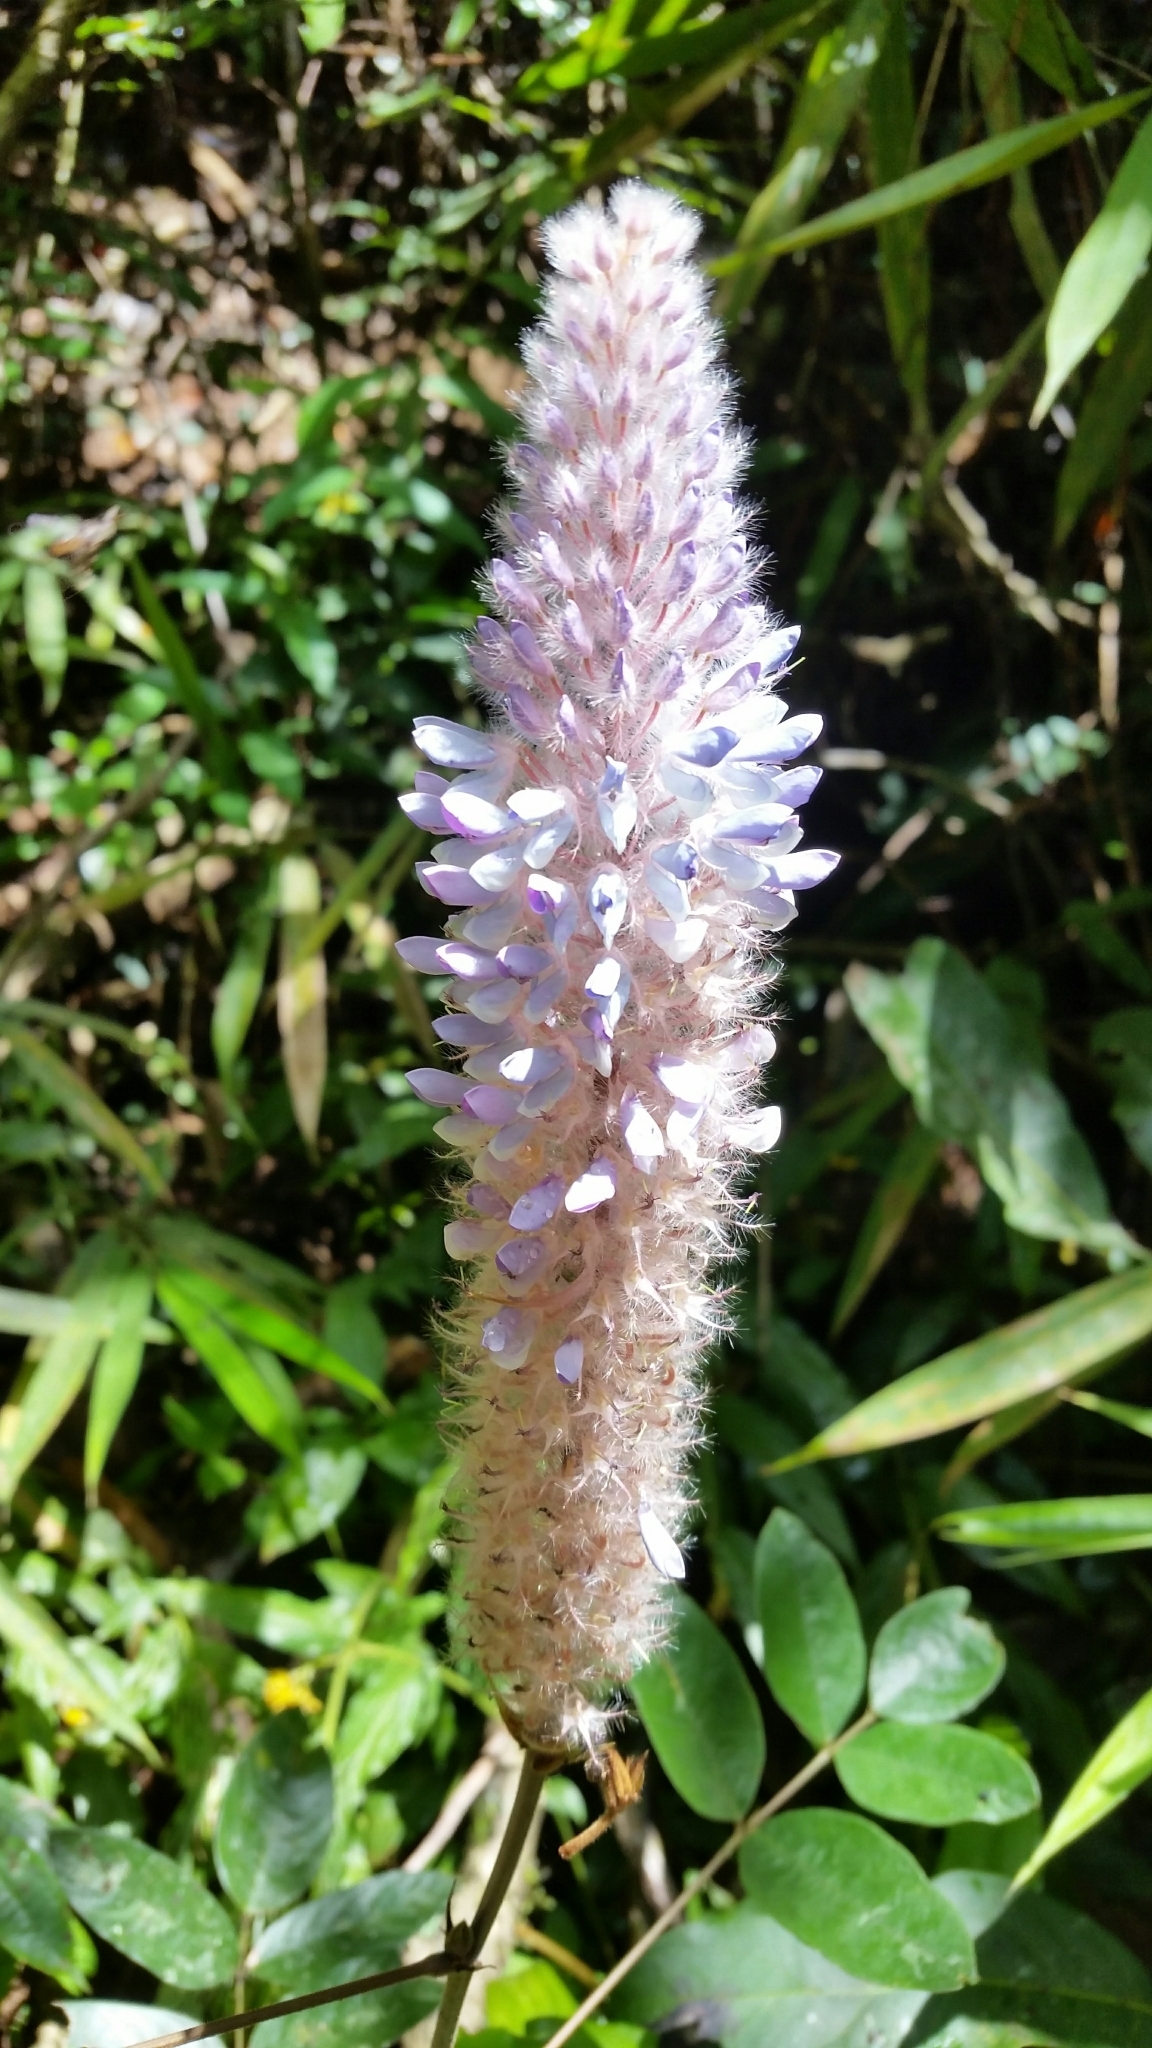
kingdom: Plantae
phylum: Tracheophyta
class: Magnoliopsida
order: Fabales
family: Fabaceae
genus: Uraria
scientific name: Uraria crinita
